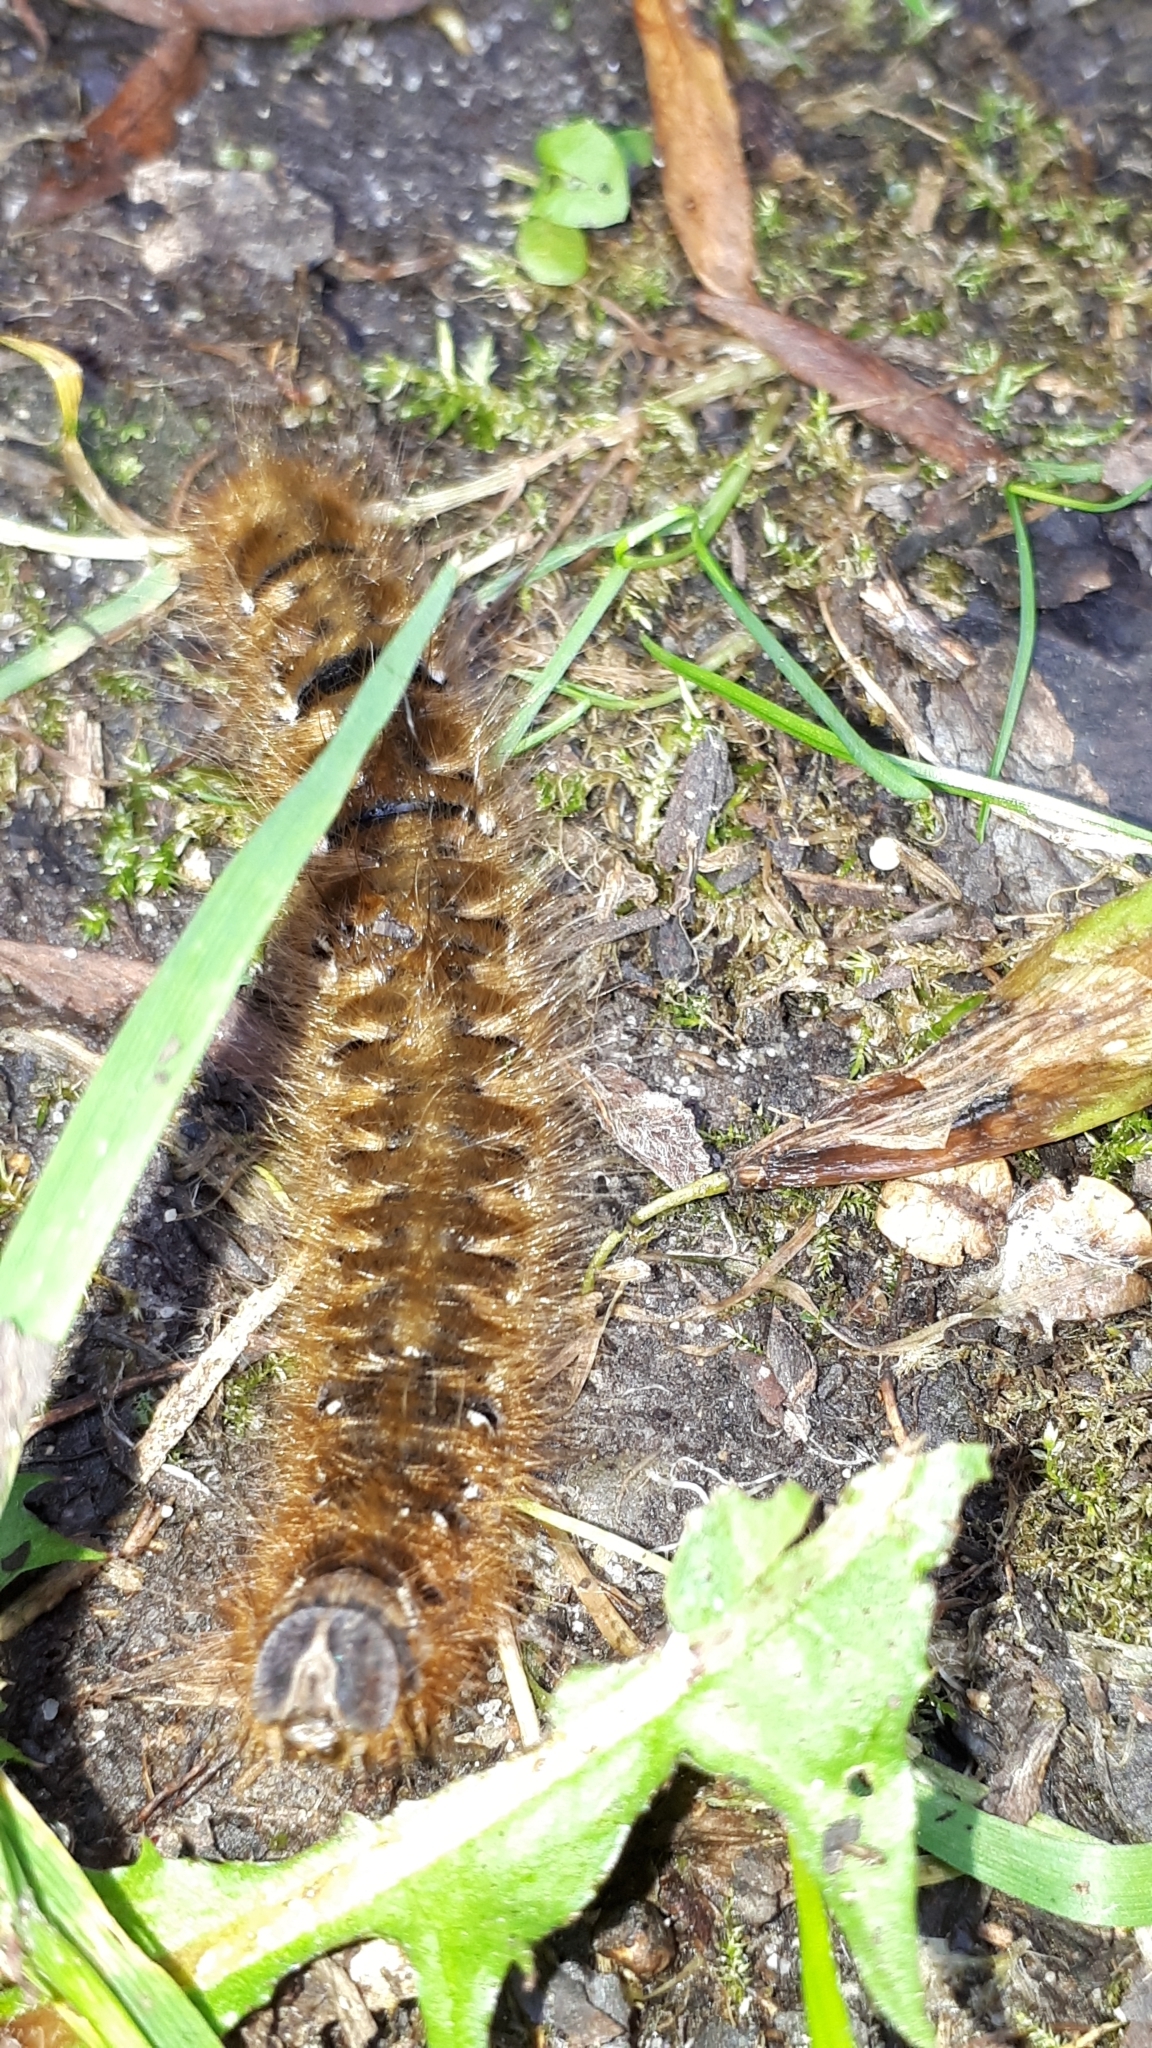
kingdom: Animalia
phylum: Arthropoda
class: Insecta
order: Lepidoptera
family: Lasiocampidae
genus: Lasiocampa
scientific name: Lasiocampa quercus
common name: Oak eggar
